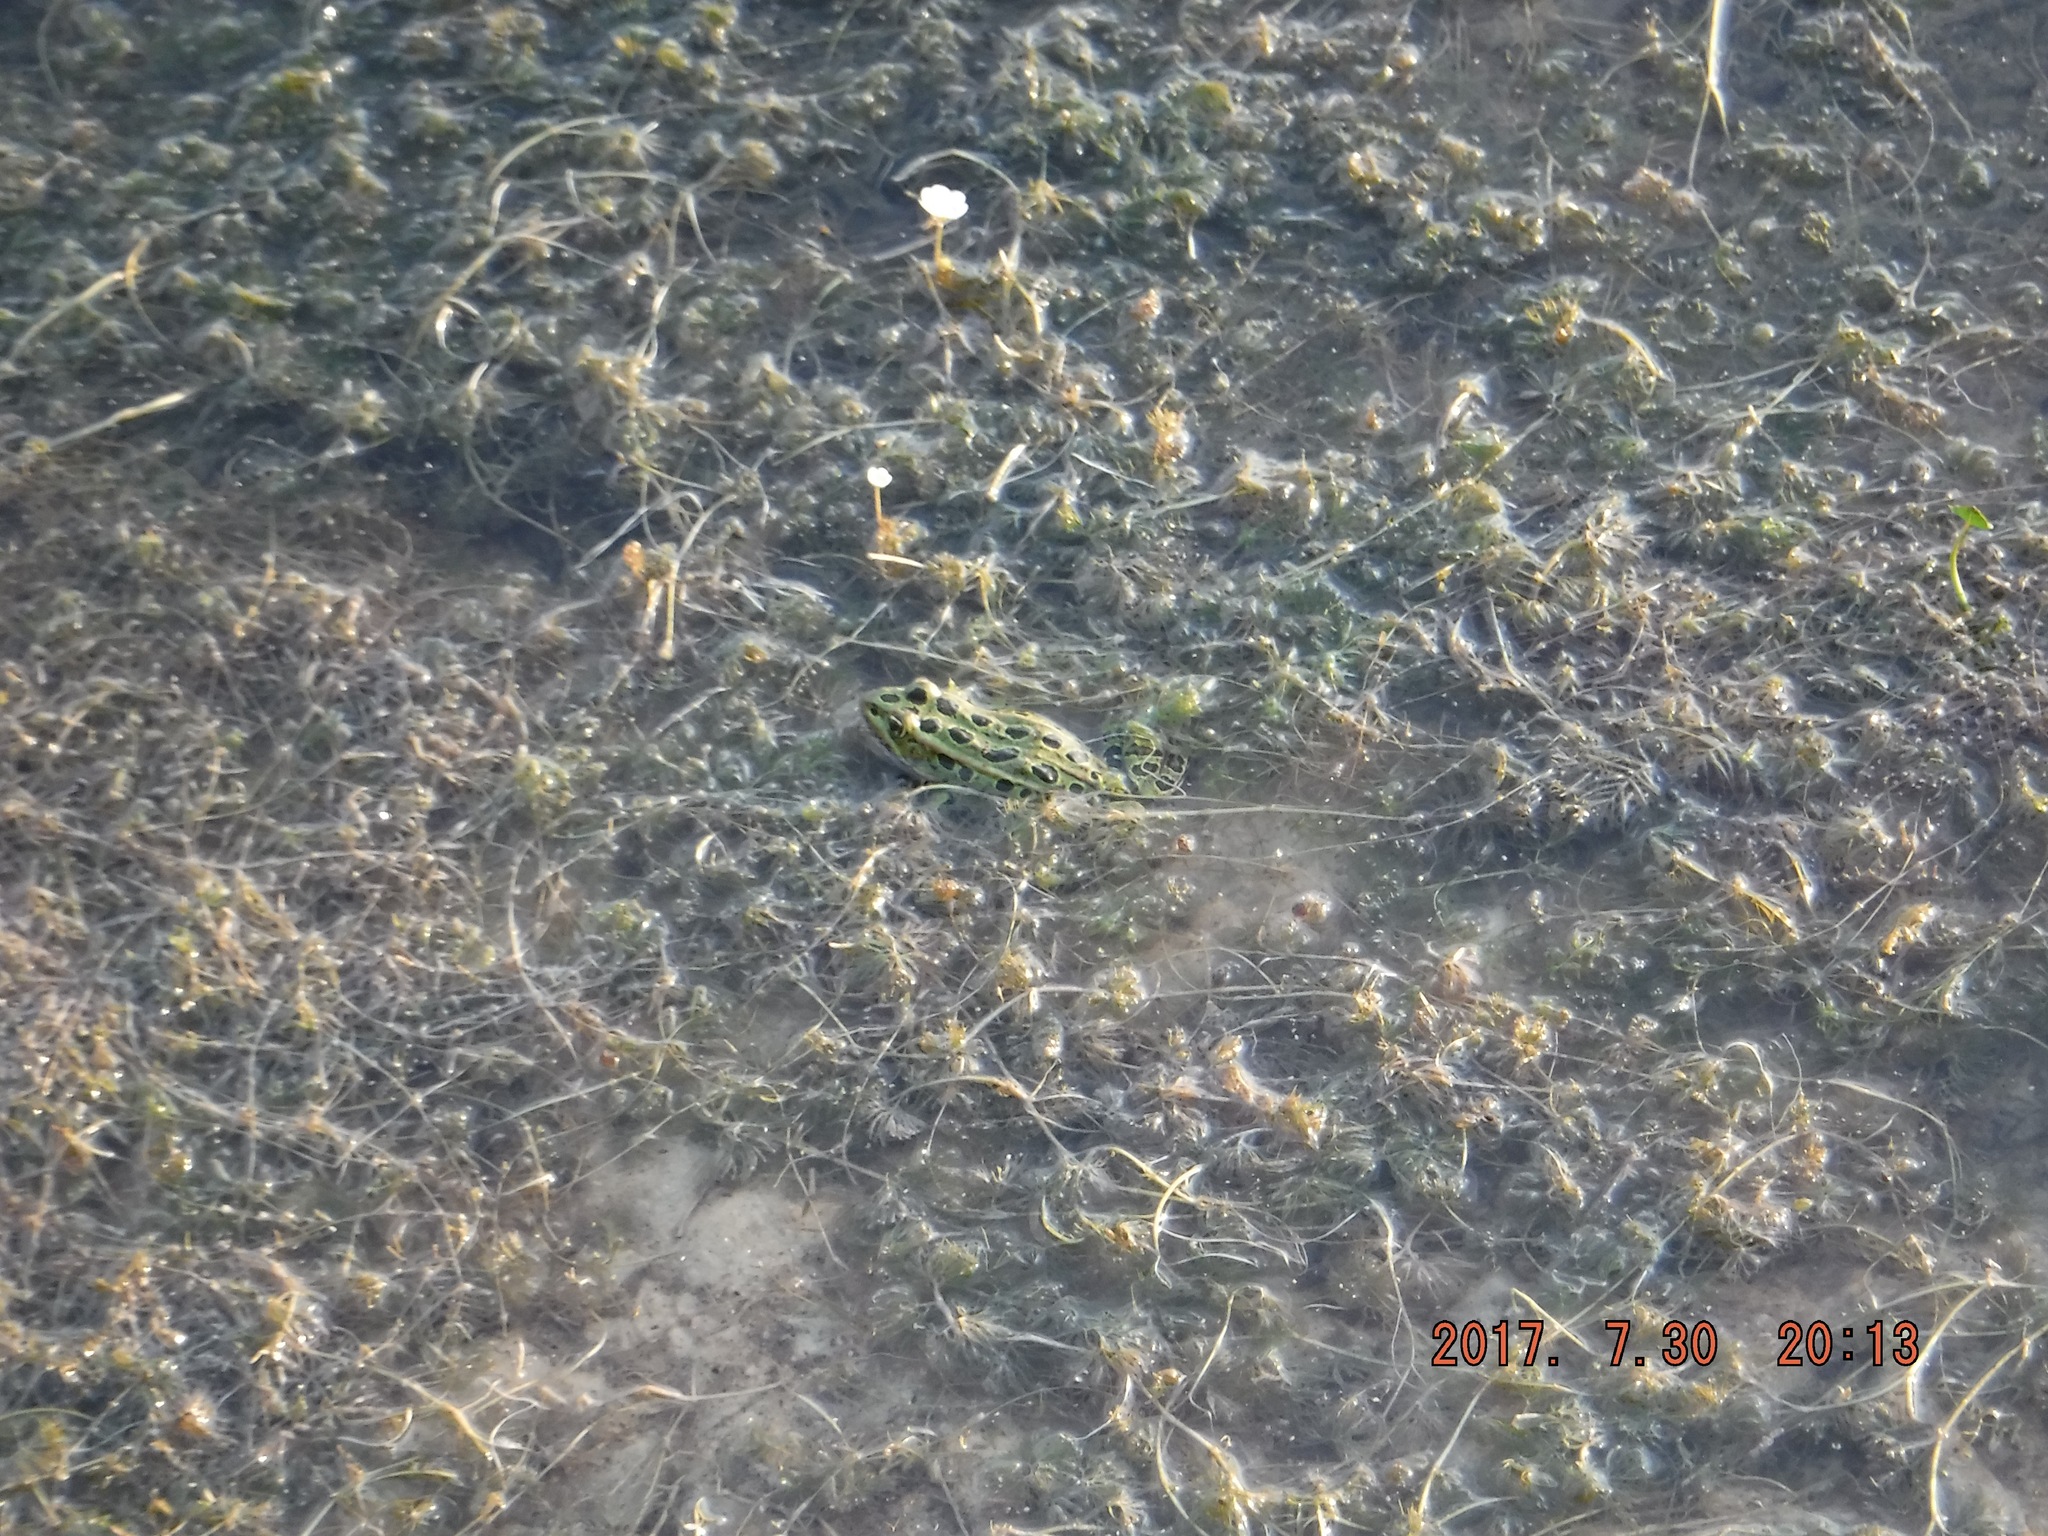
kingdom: Animalia
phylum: Chordata
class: Amphibia
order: Anura
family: Ranidae
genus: Lithobates
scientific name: Lithobates pipiens
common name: Northern leopard frog
